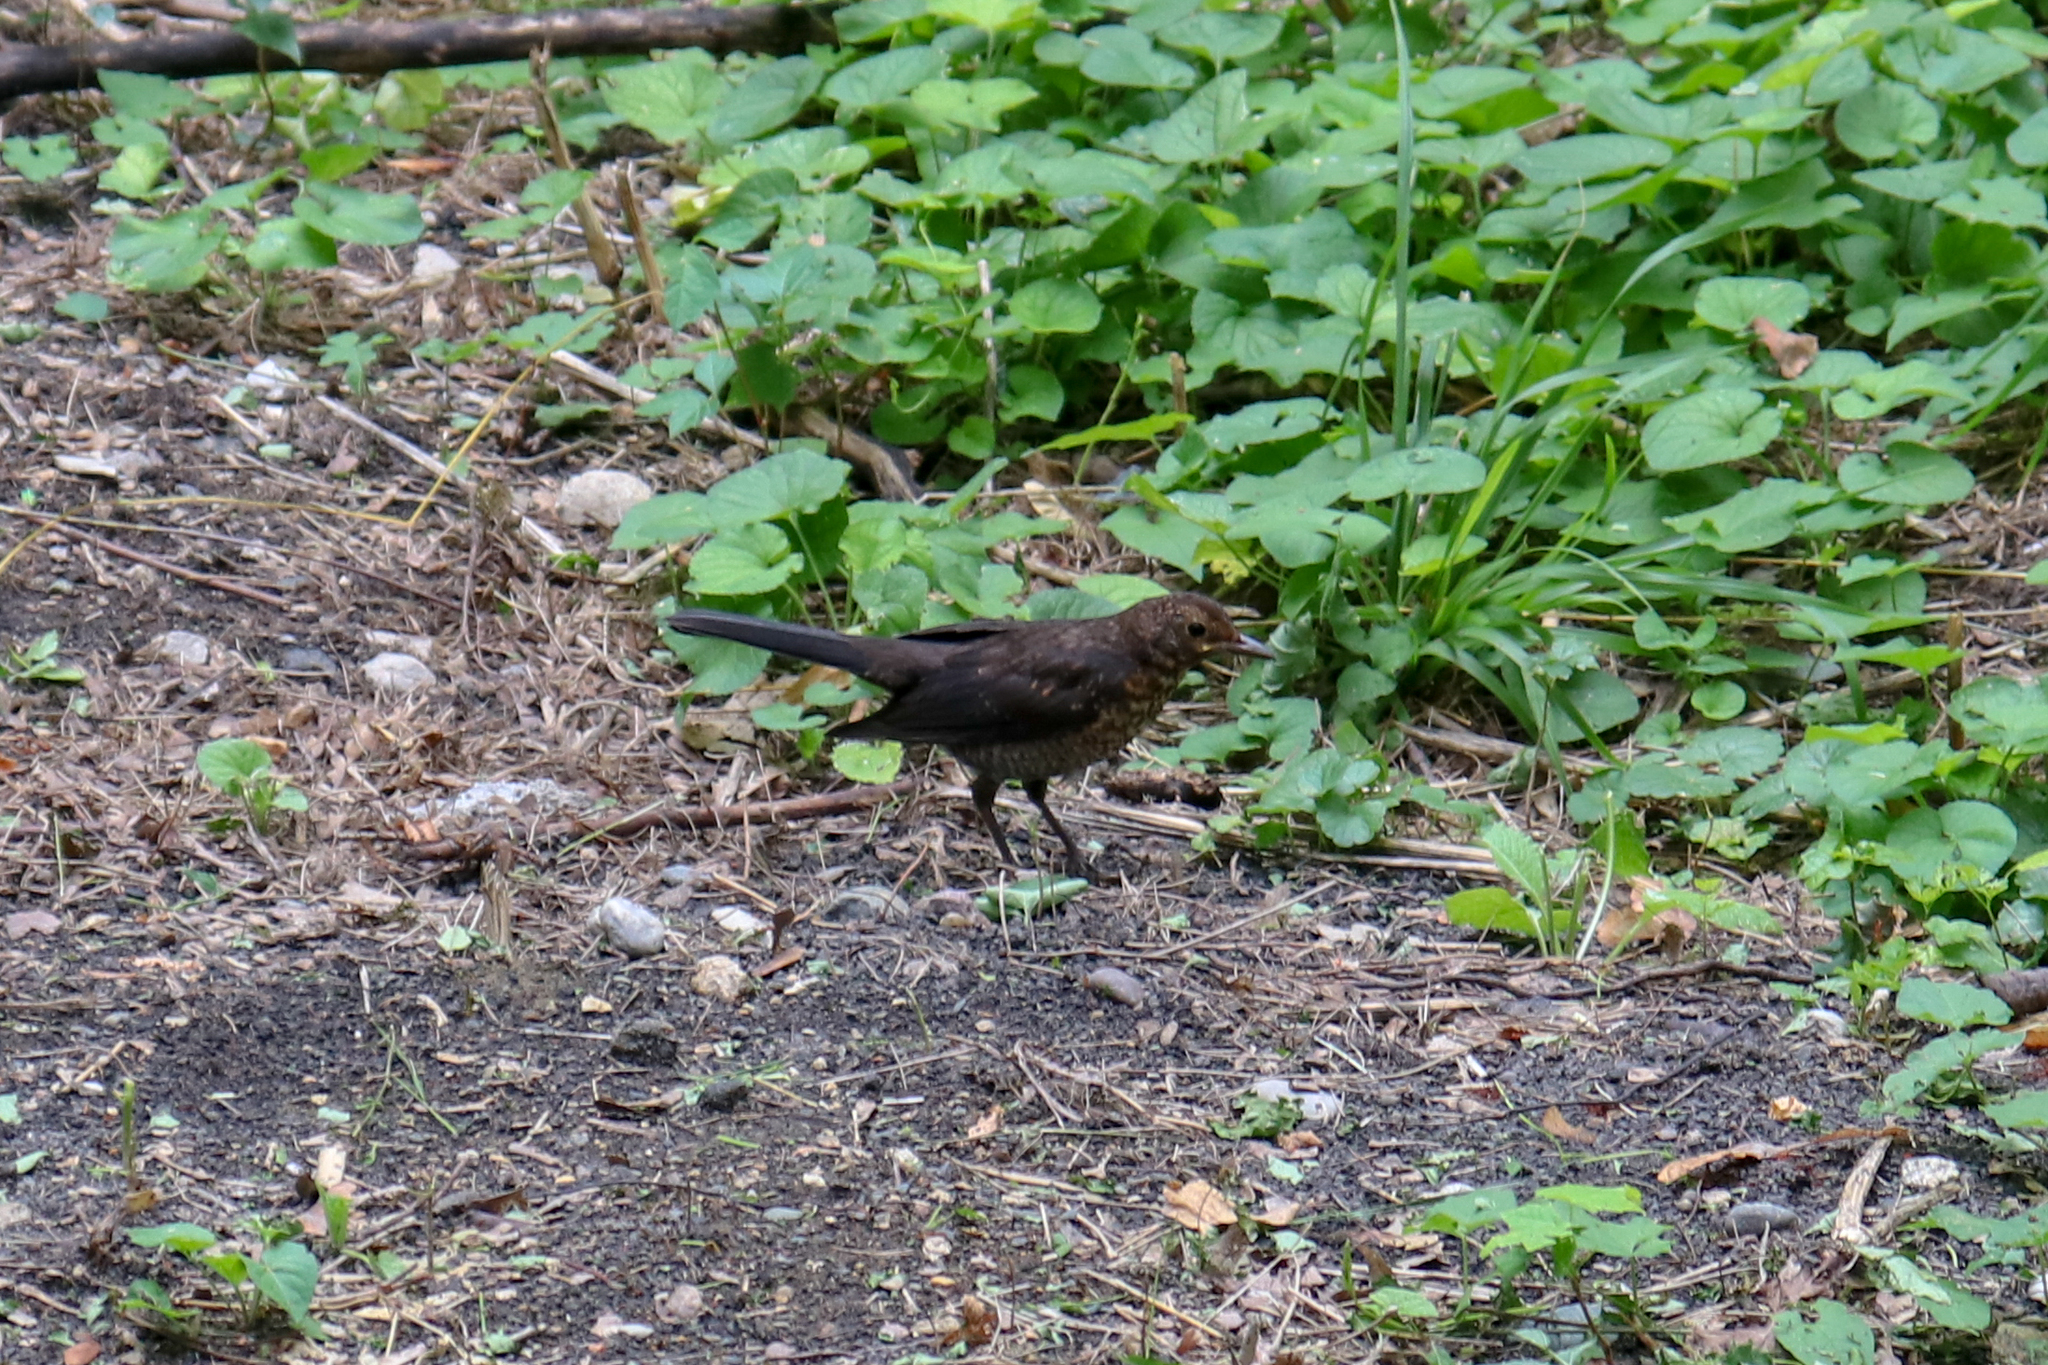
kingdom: Animalia
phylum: Chordata
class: Aves
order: Passeriformes
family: Turdidae
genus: Turdus
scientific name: Turdus merula
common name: Common blackbird
